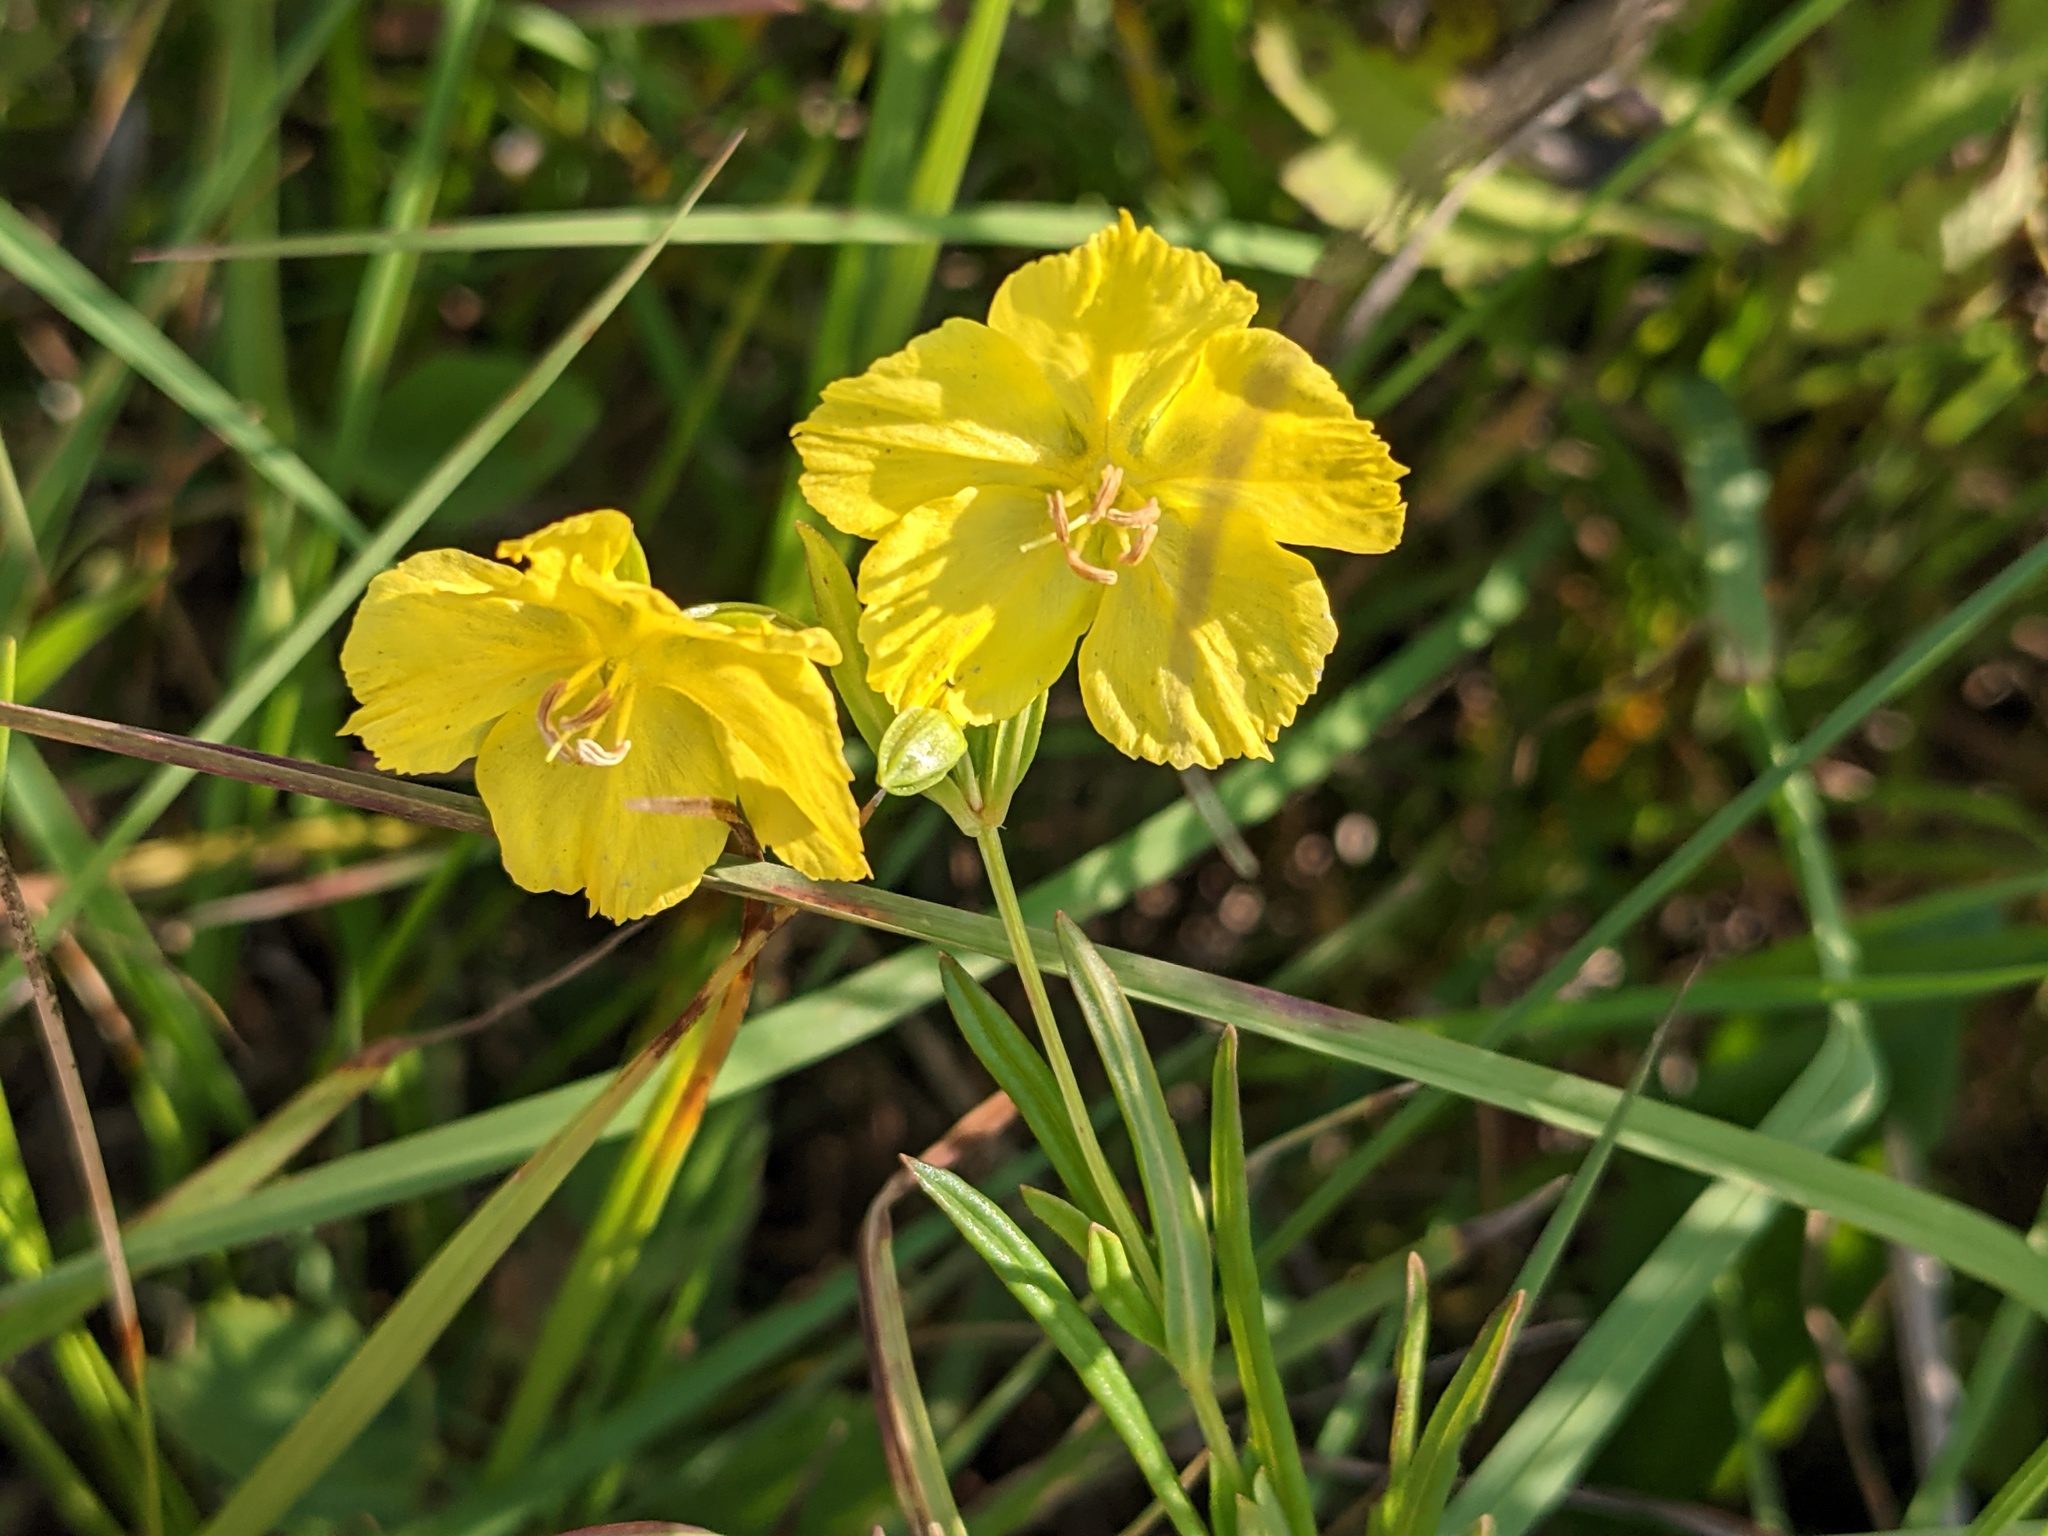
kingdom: Plantae
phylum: Tracheophyta
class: Magnoliopsida
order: Ericales
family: Primulaceae
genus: Lysimachia
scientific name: Lysimachia quadriflora
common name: Four-flowered loosestrife
